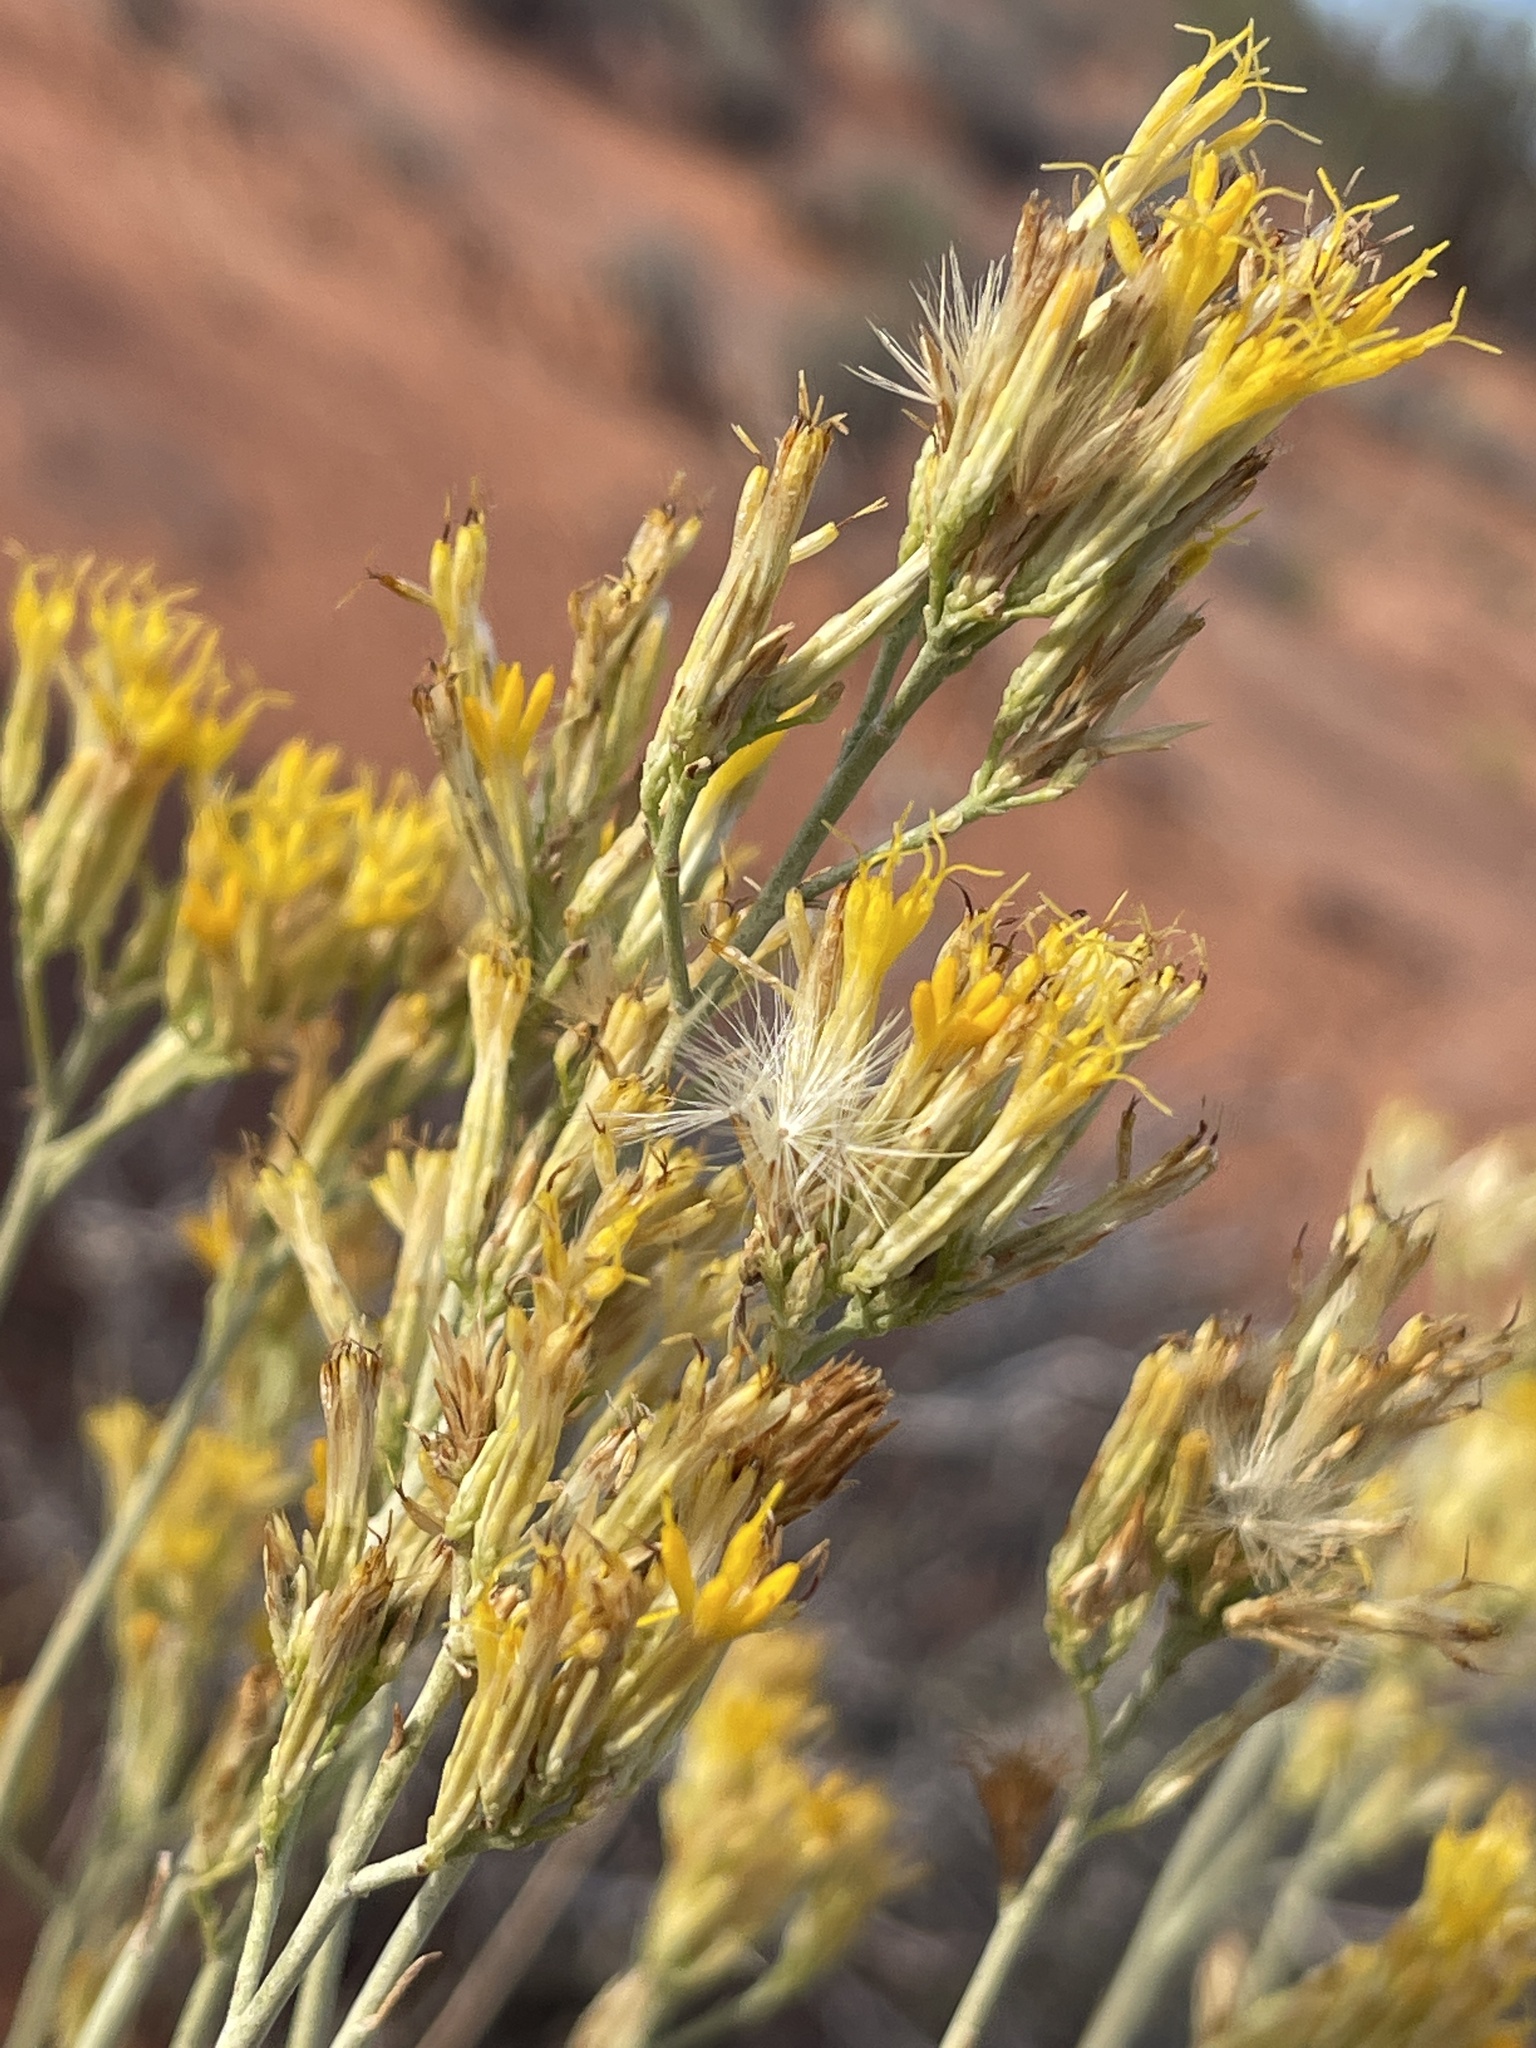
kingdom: Plantae
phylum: Tracheophyta
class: Magnoliopsida
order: Asterales
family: Asteraceae
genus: Ericameria
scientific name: Ericameria nauseosa
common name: Rubber rabbitbrush
